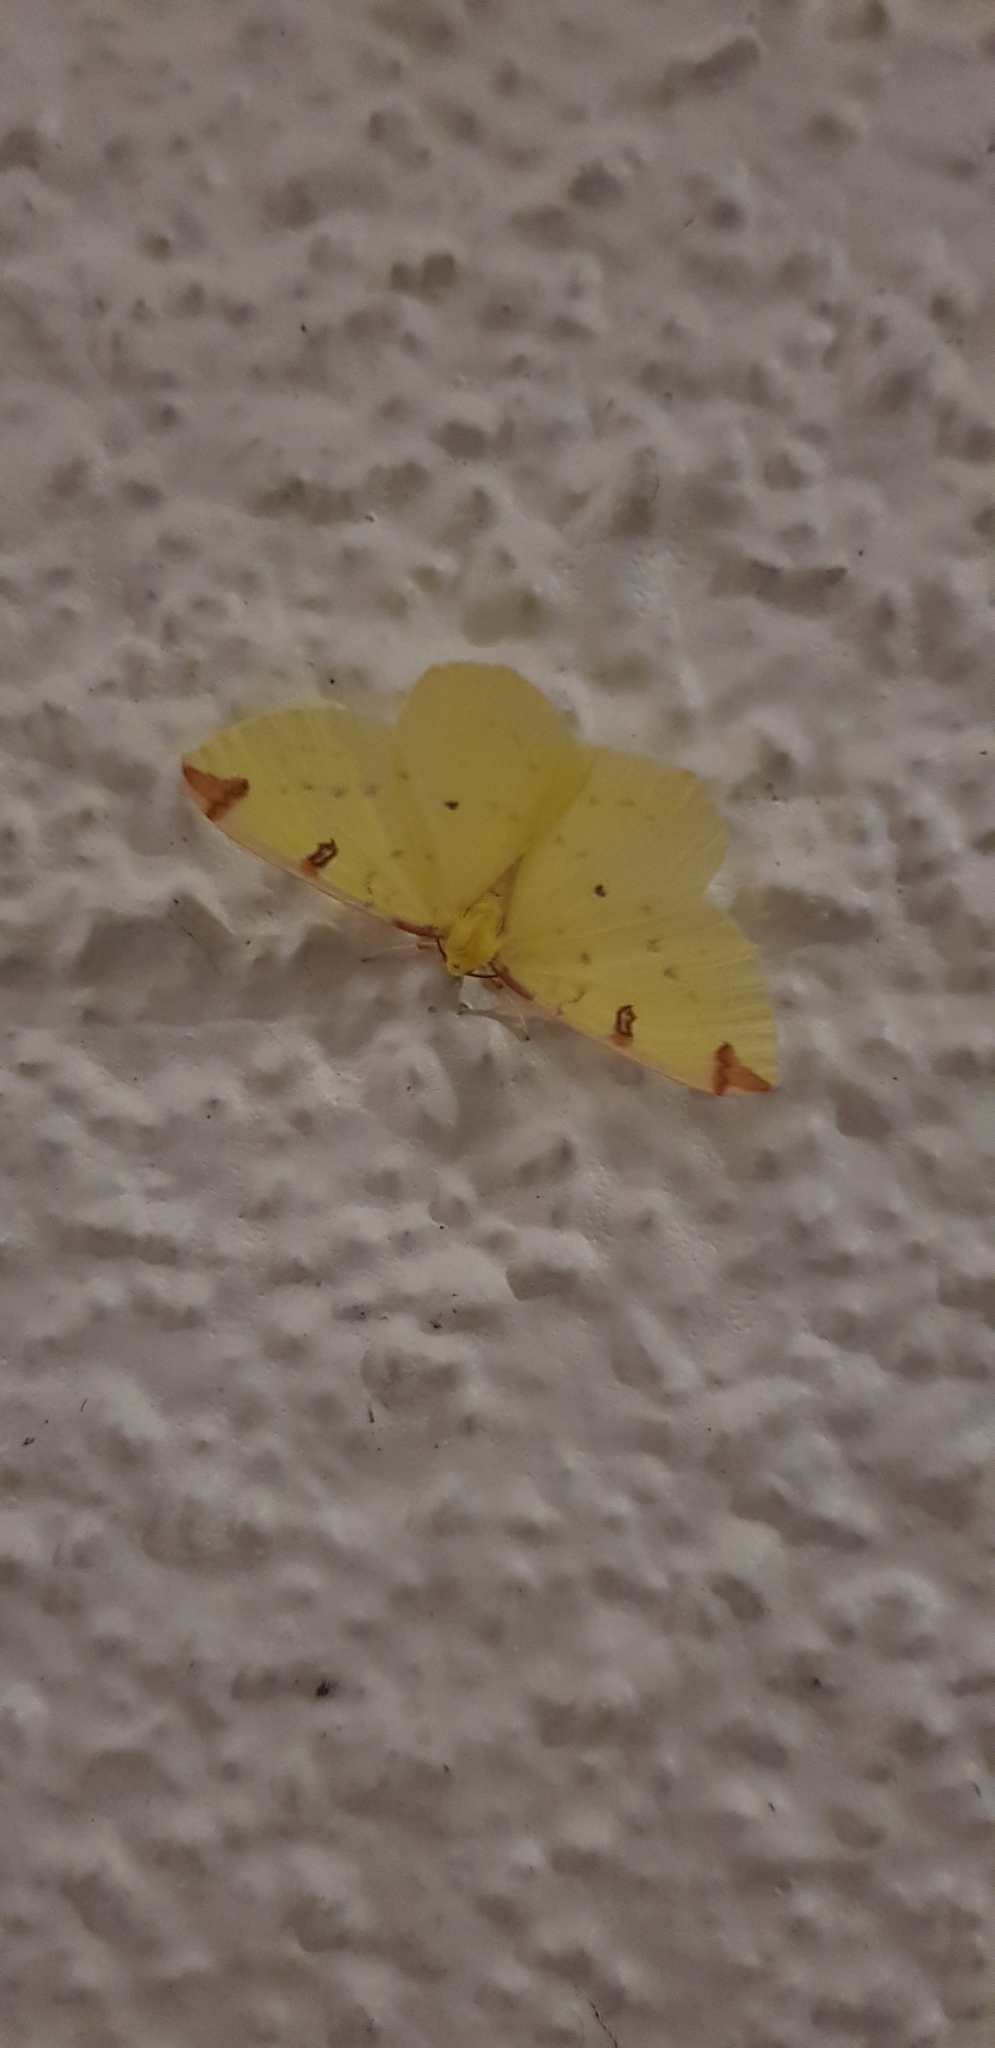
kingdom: Animalia
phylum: Arthropoda
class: Insecta
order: Lepidoptera
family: Geometridae
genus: Opisthograptis
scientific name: Opisthograptis luteolata
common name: Brimstone moth
